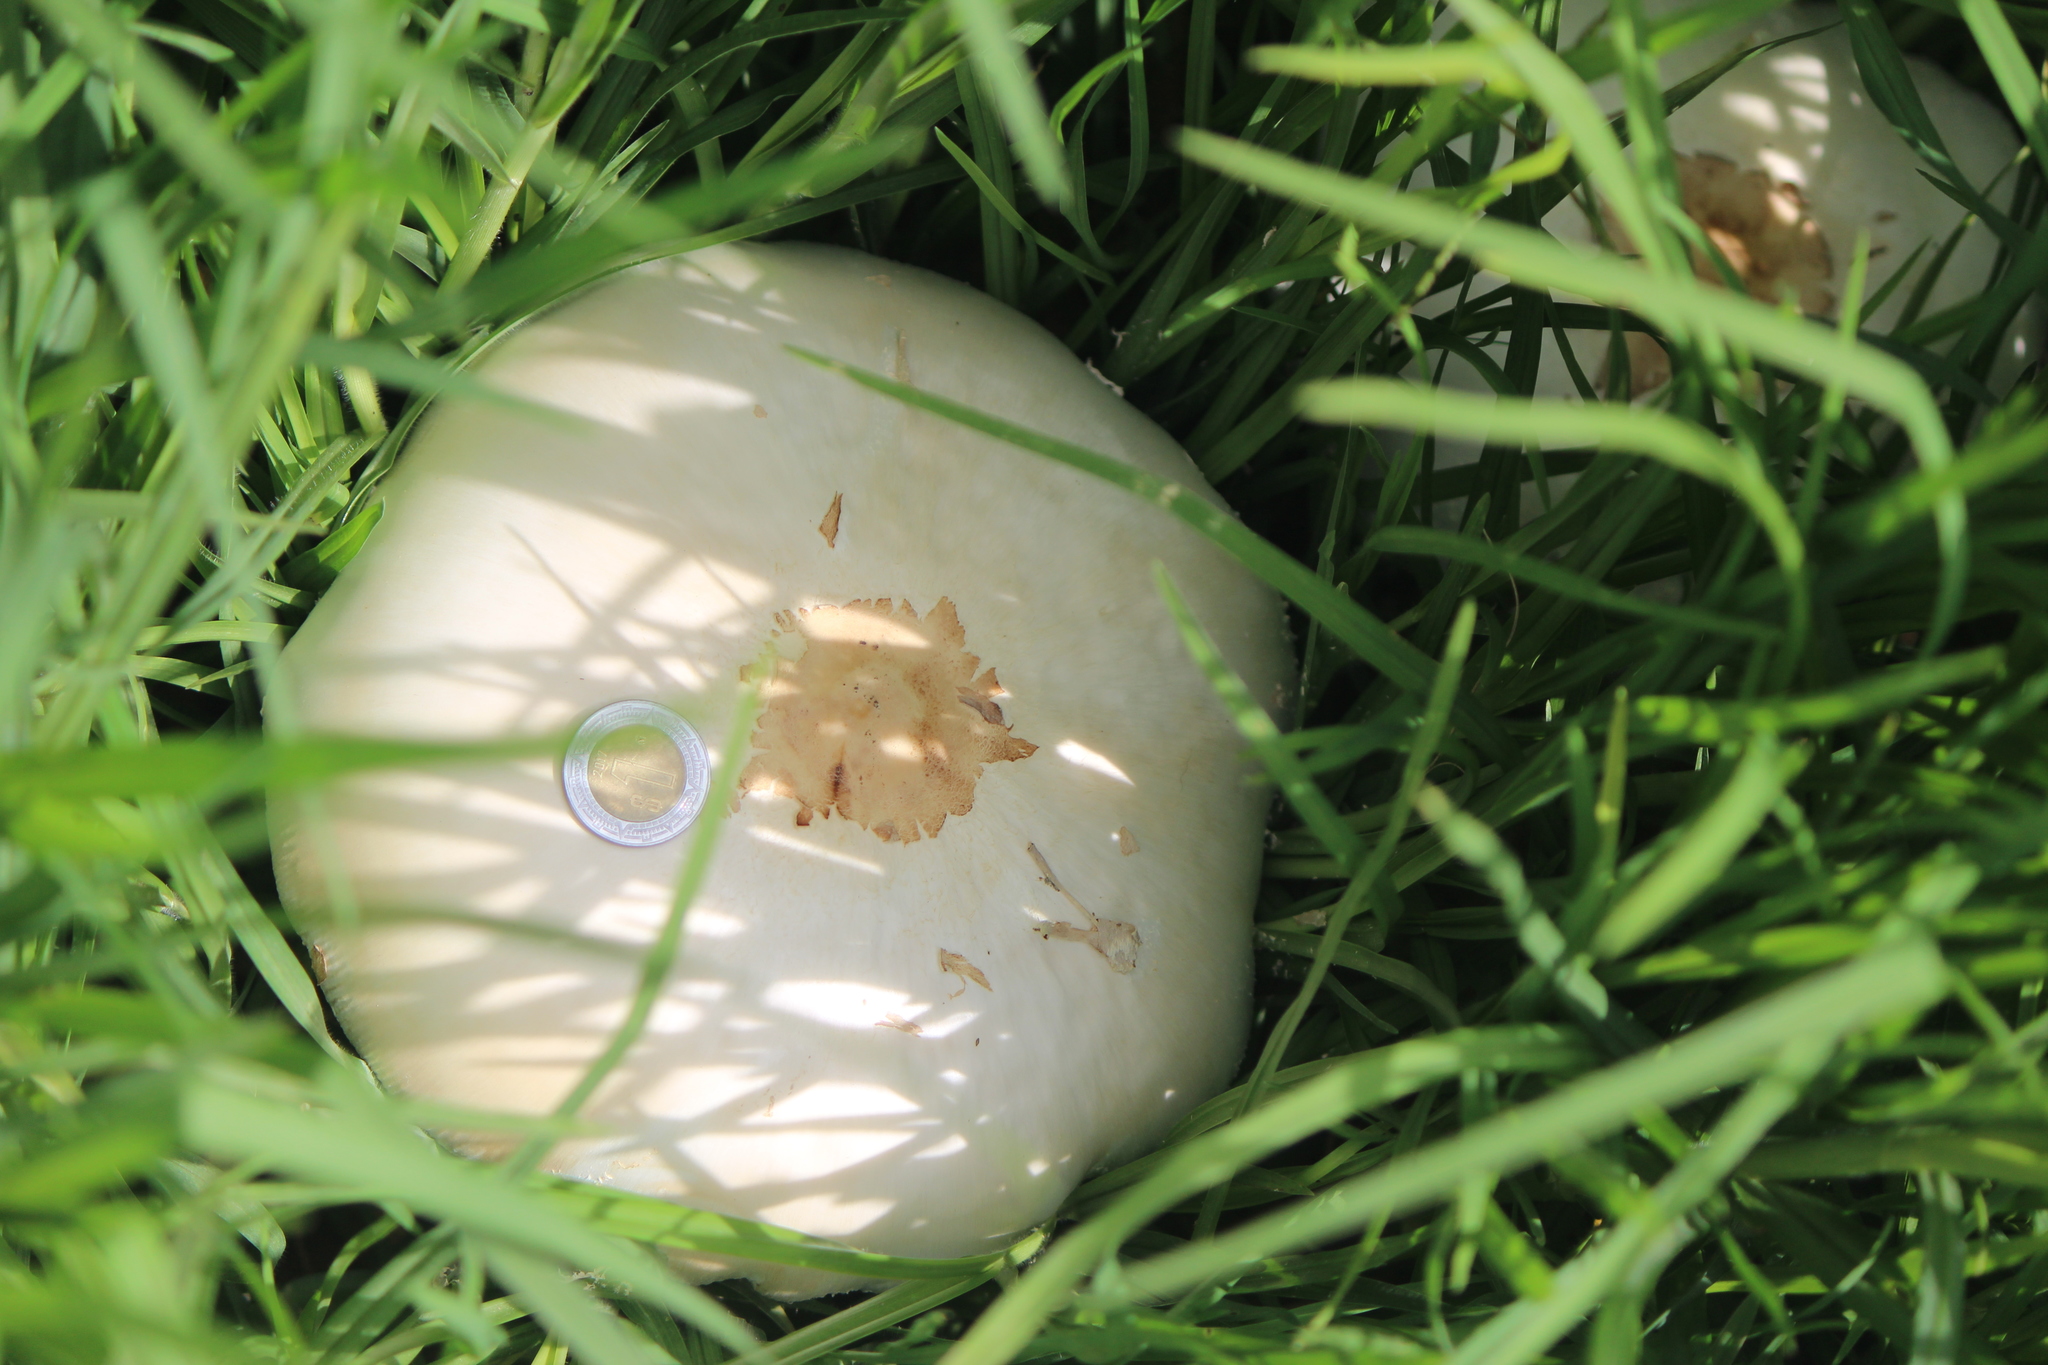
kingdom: Fungi
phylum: Basidiomycota
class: Agaricomycetes
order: Agaricales
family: Agaricaceae
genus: Chlorophyllum
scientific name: Chlorophyllum molybdites
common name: False parasol
